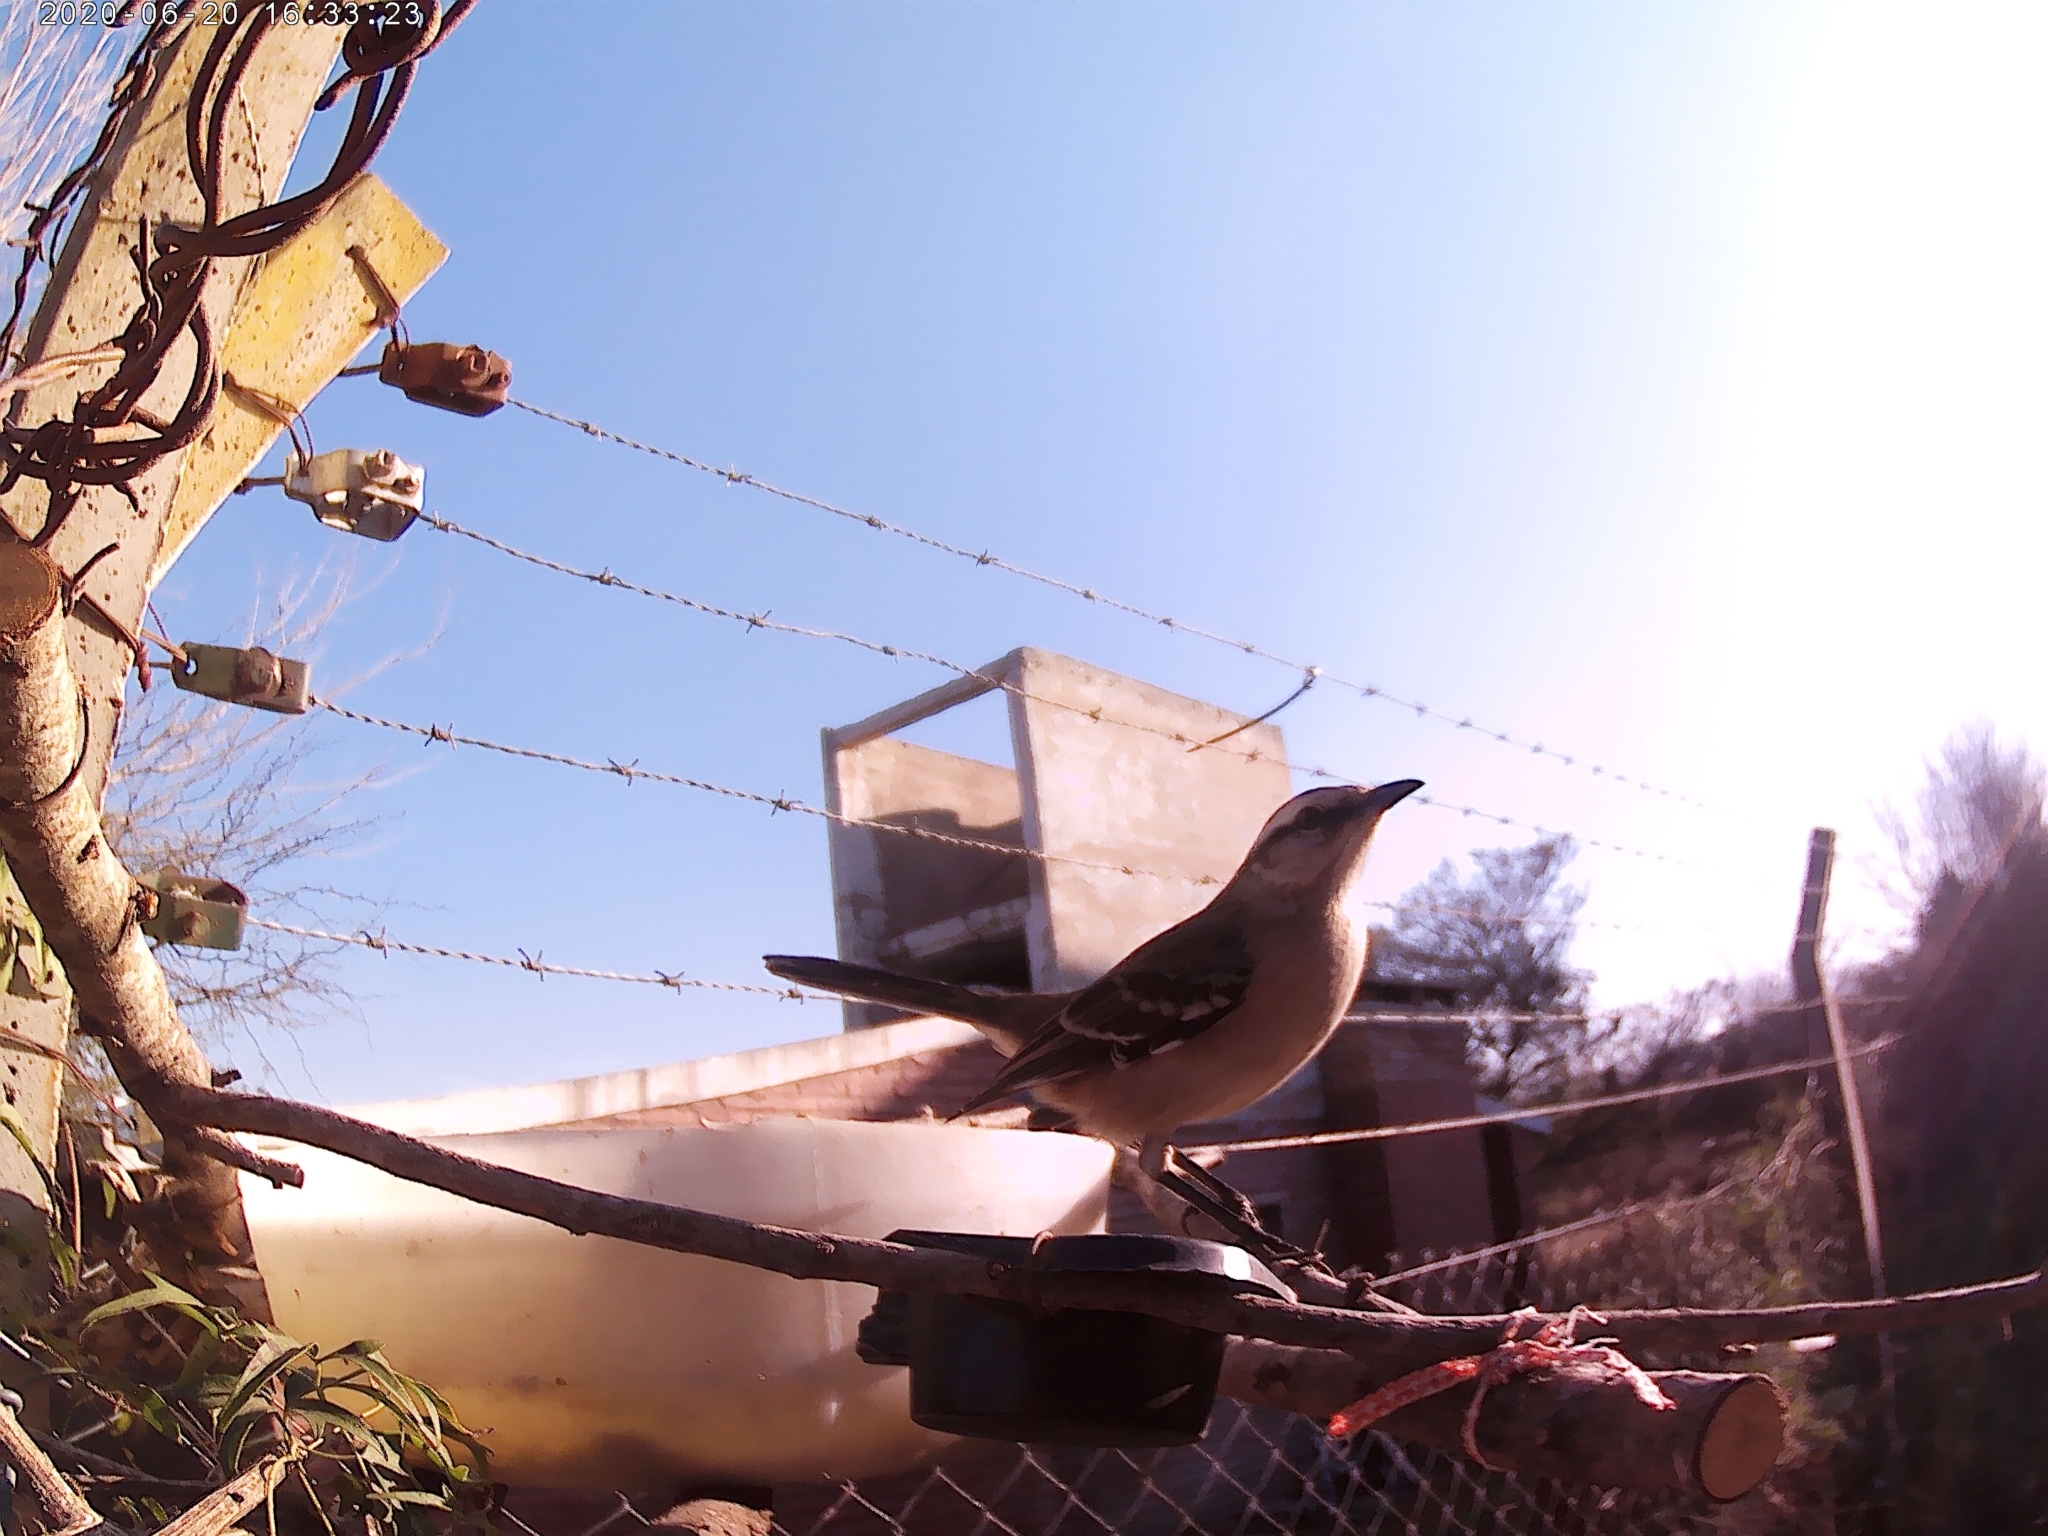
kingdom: Animalia
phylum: Chordata
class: Aves
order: Passeriformes
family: Mimidae
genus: Mimus
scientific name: Mimus saturninus
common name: Chalk-browed mockingbird
